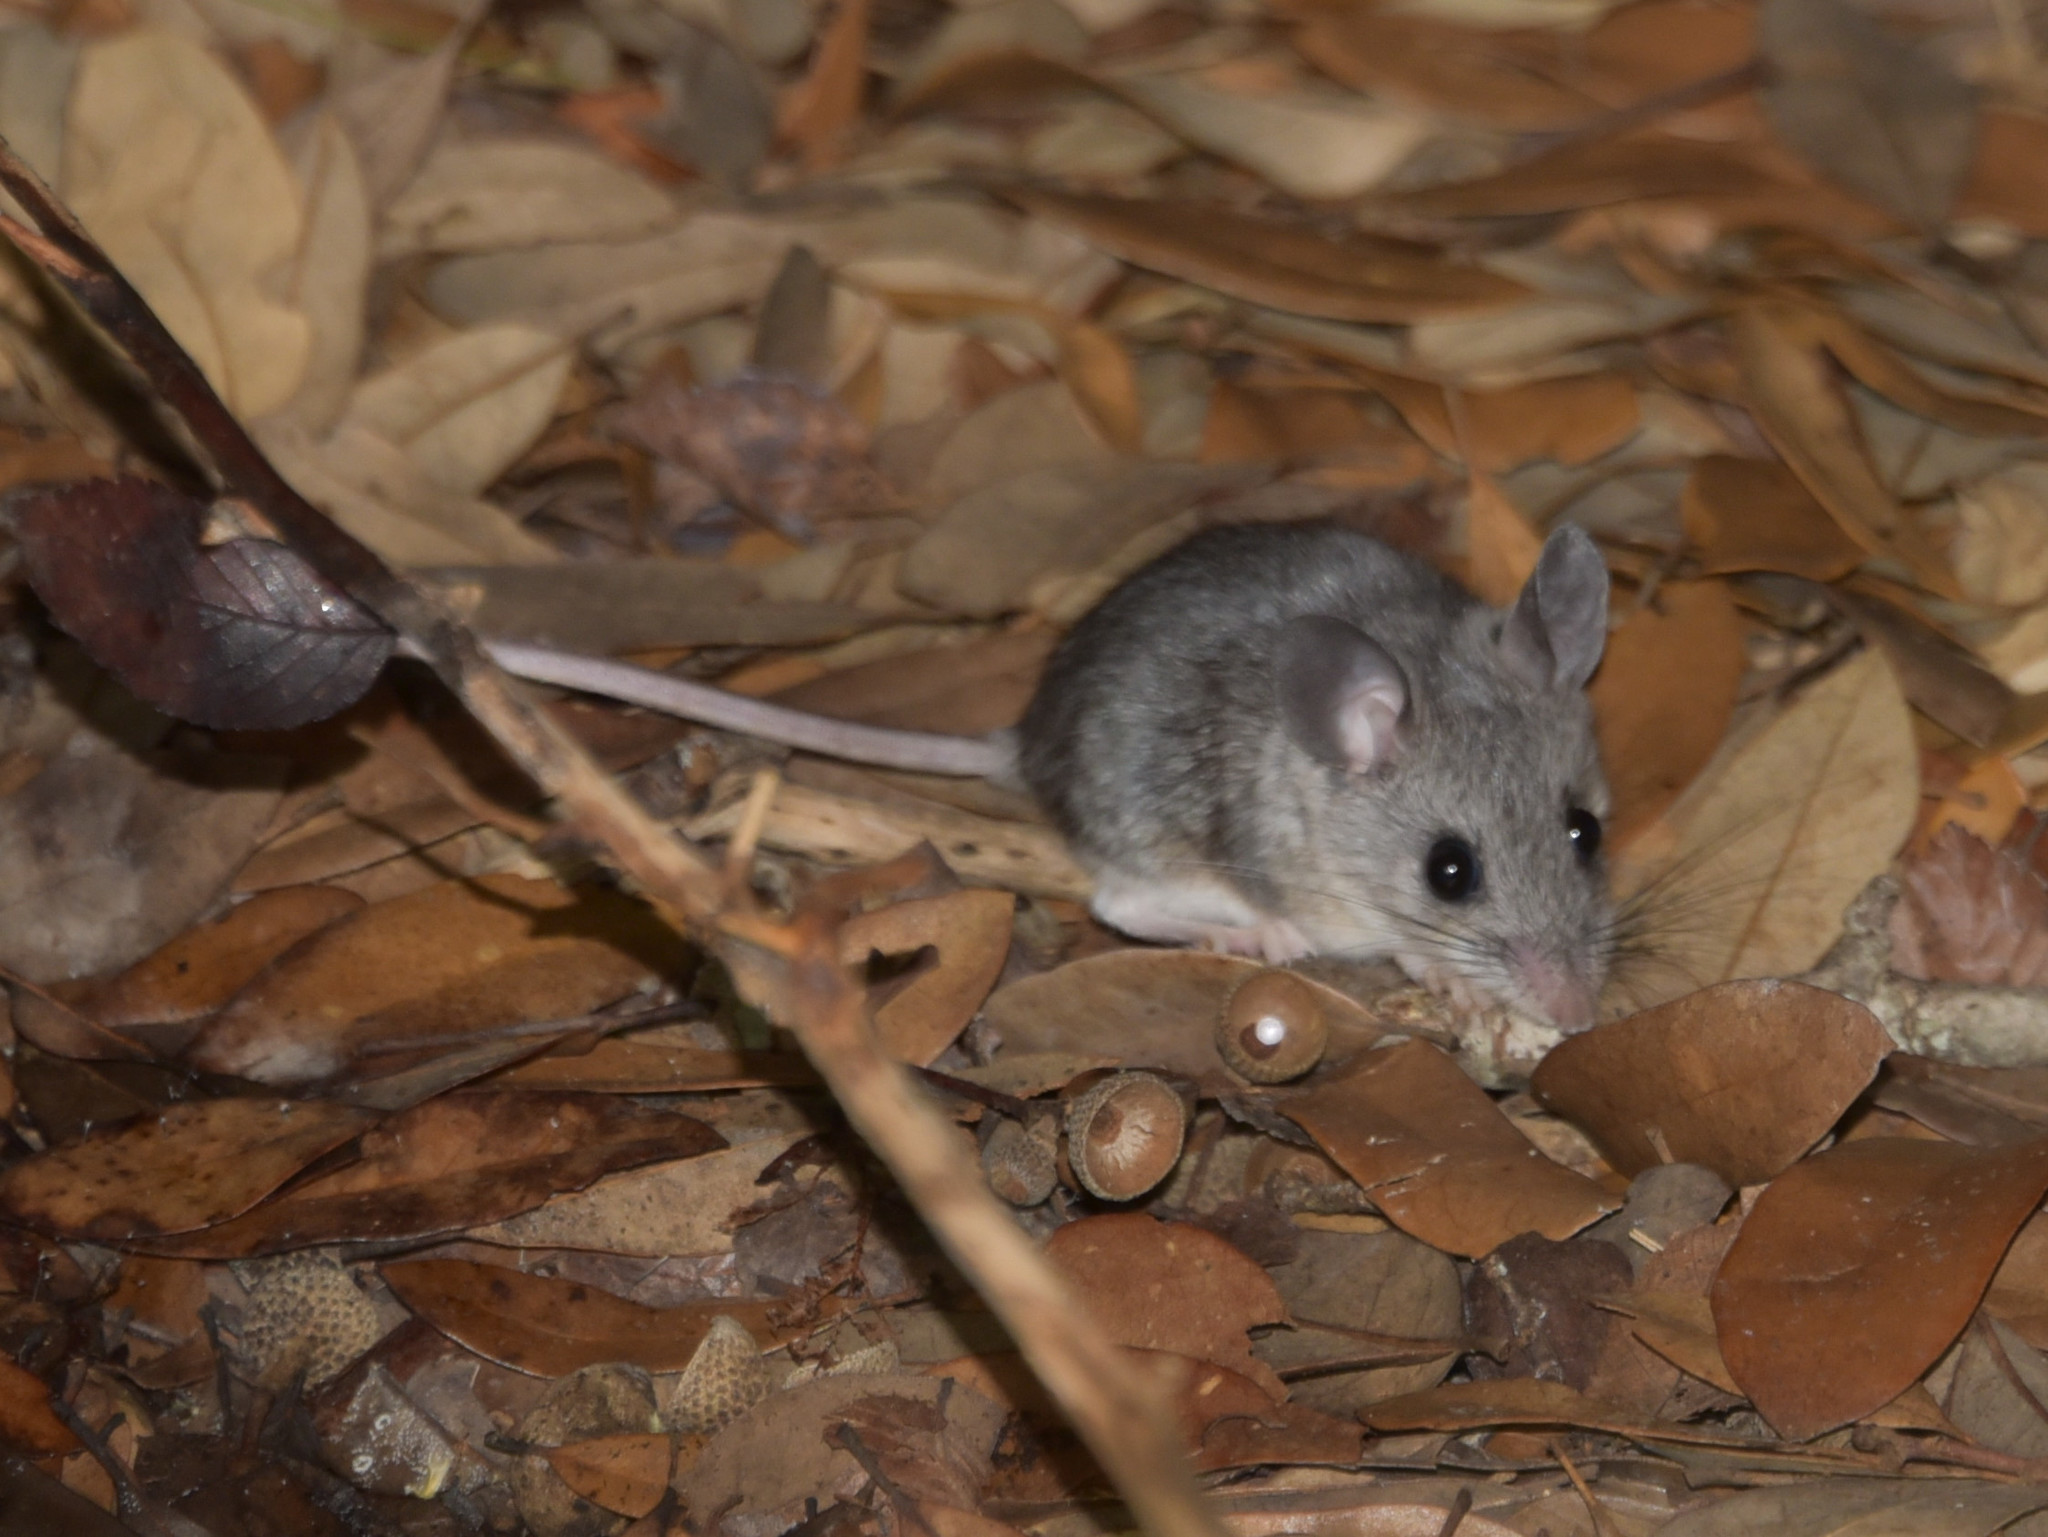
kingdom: Animalia
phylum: Chordata
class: Mammalia
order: Rodentia
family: Cricetidae
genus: Peromyscus
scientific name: Peromyscus leucopus
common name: White-footed deermouse
